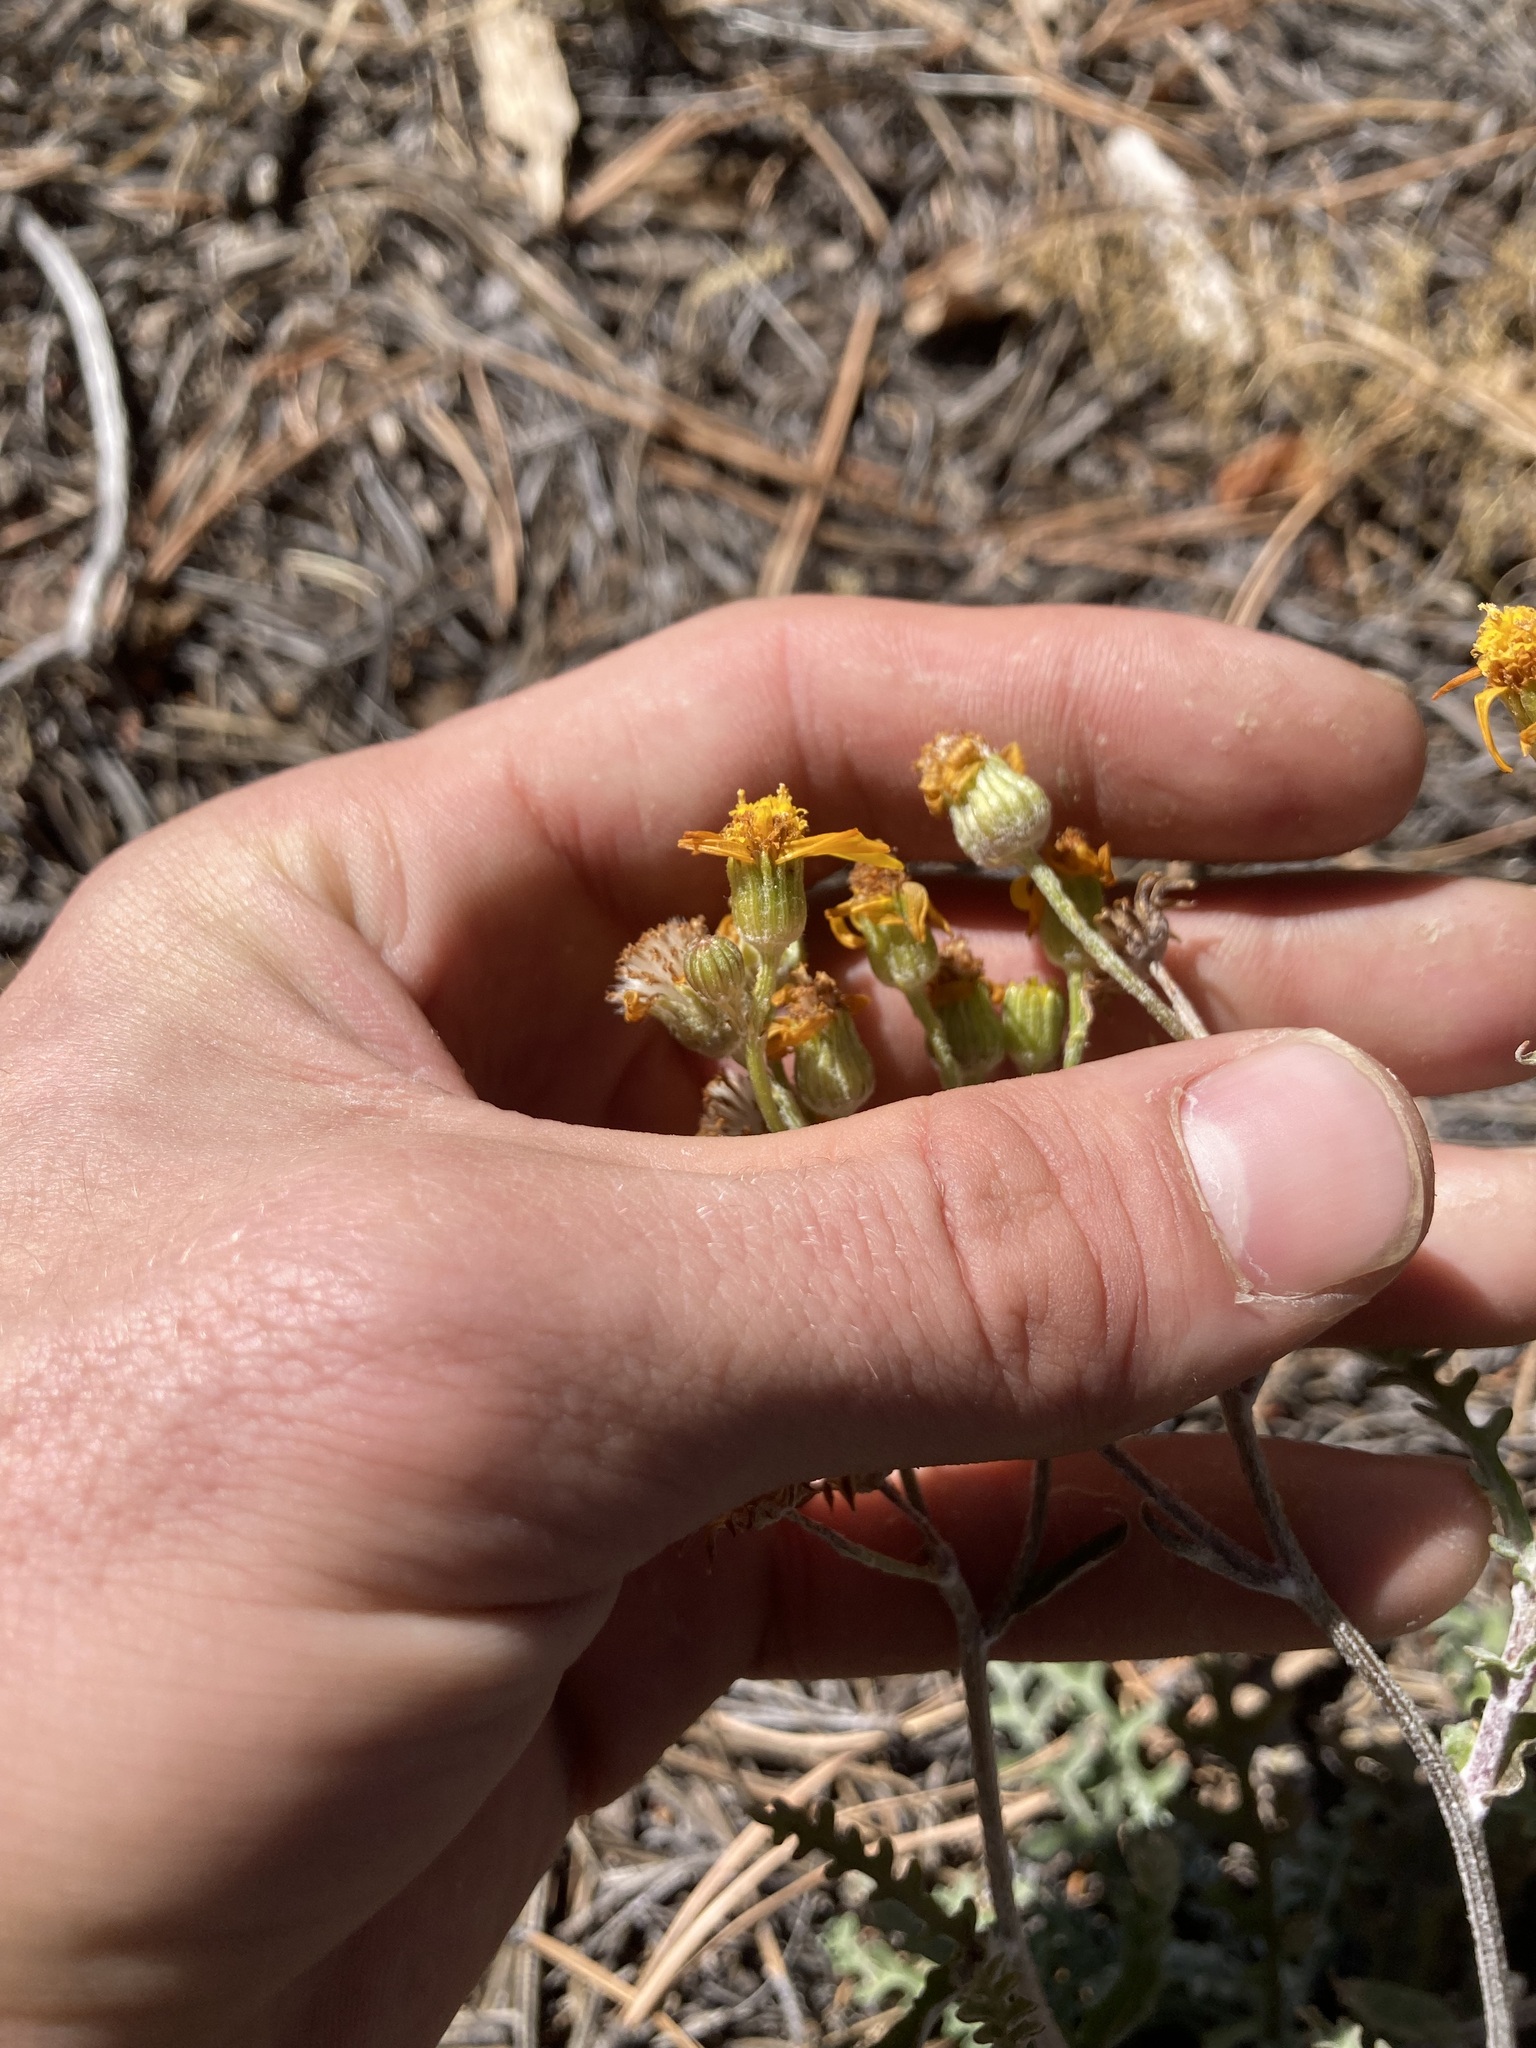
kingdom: Plantae
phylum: Tracheophyta
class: Magnoliopsida
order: Asterales
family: Asteraceae
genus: Packera
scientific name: Packera fendleri
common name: Notch-leaf butterweed
